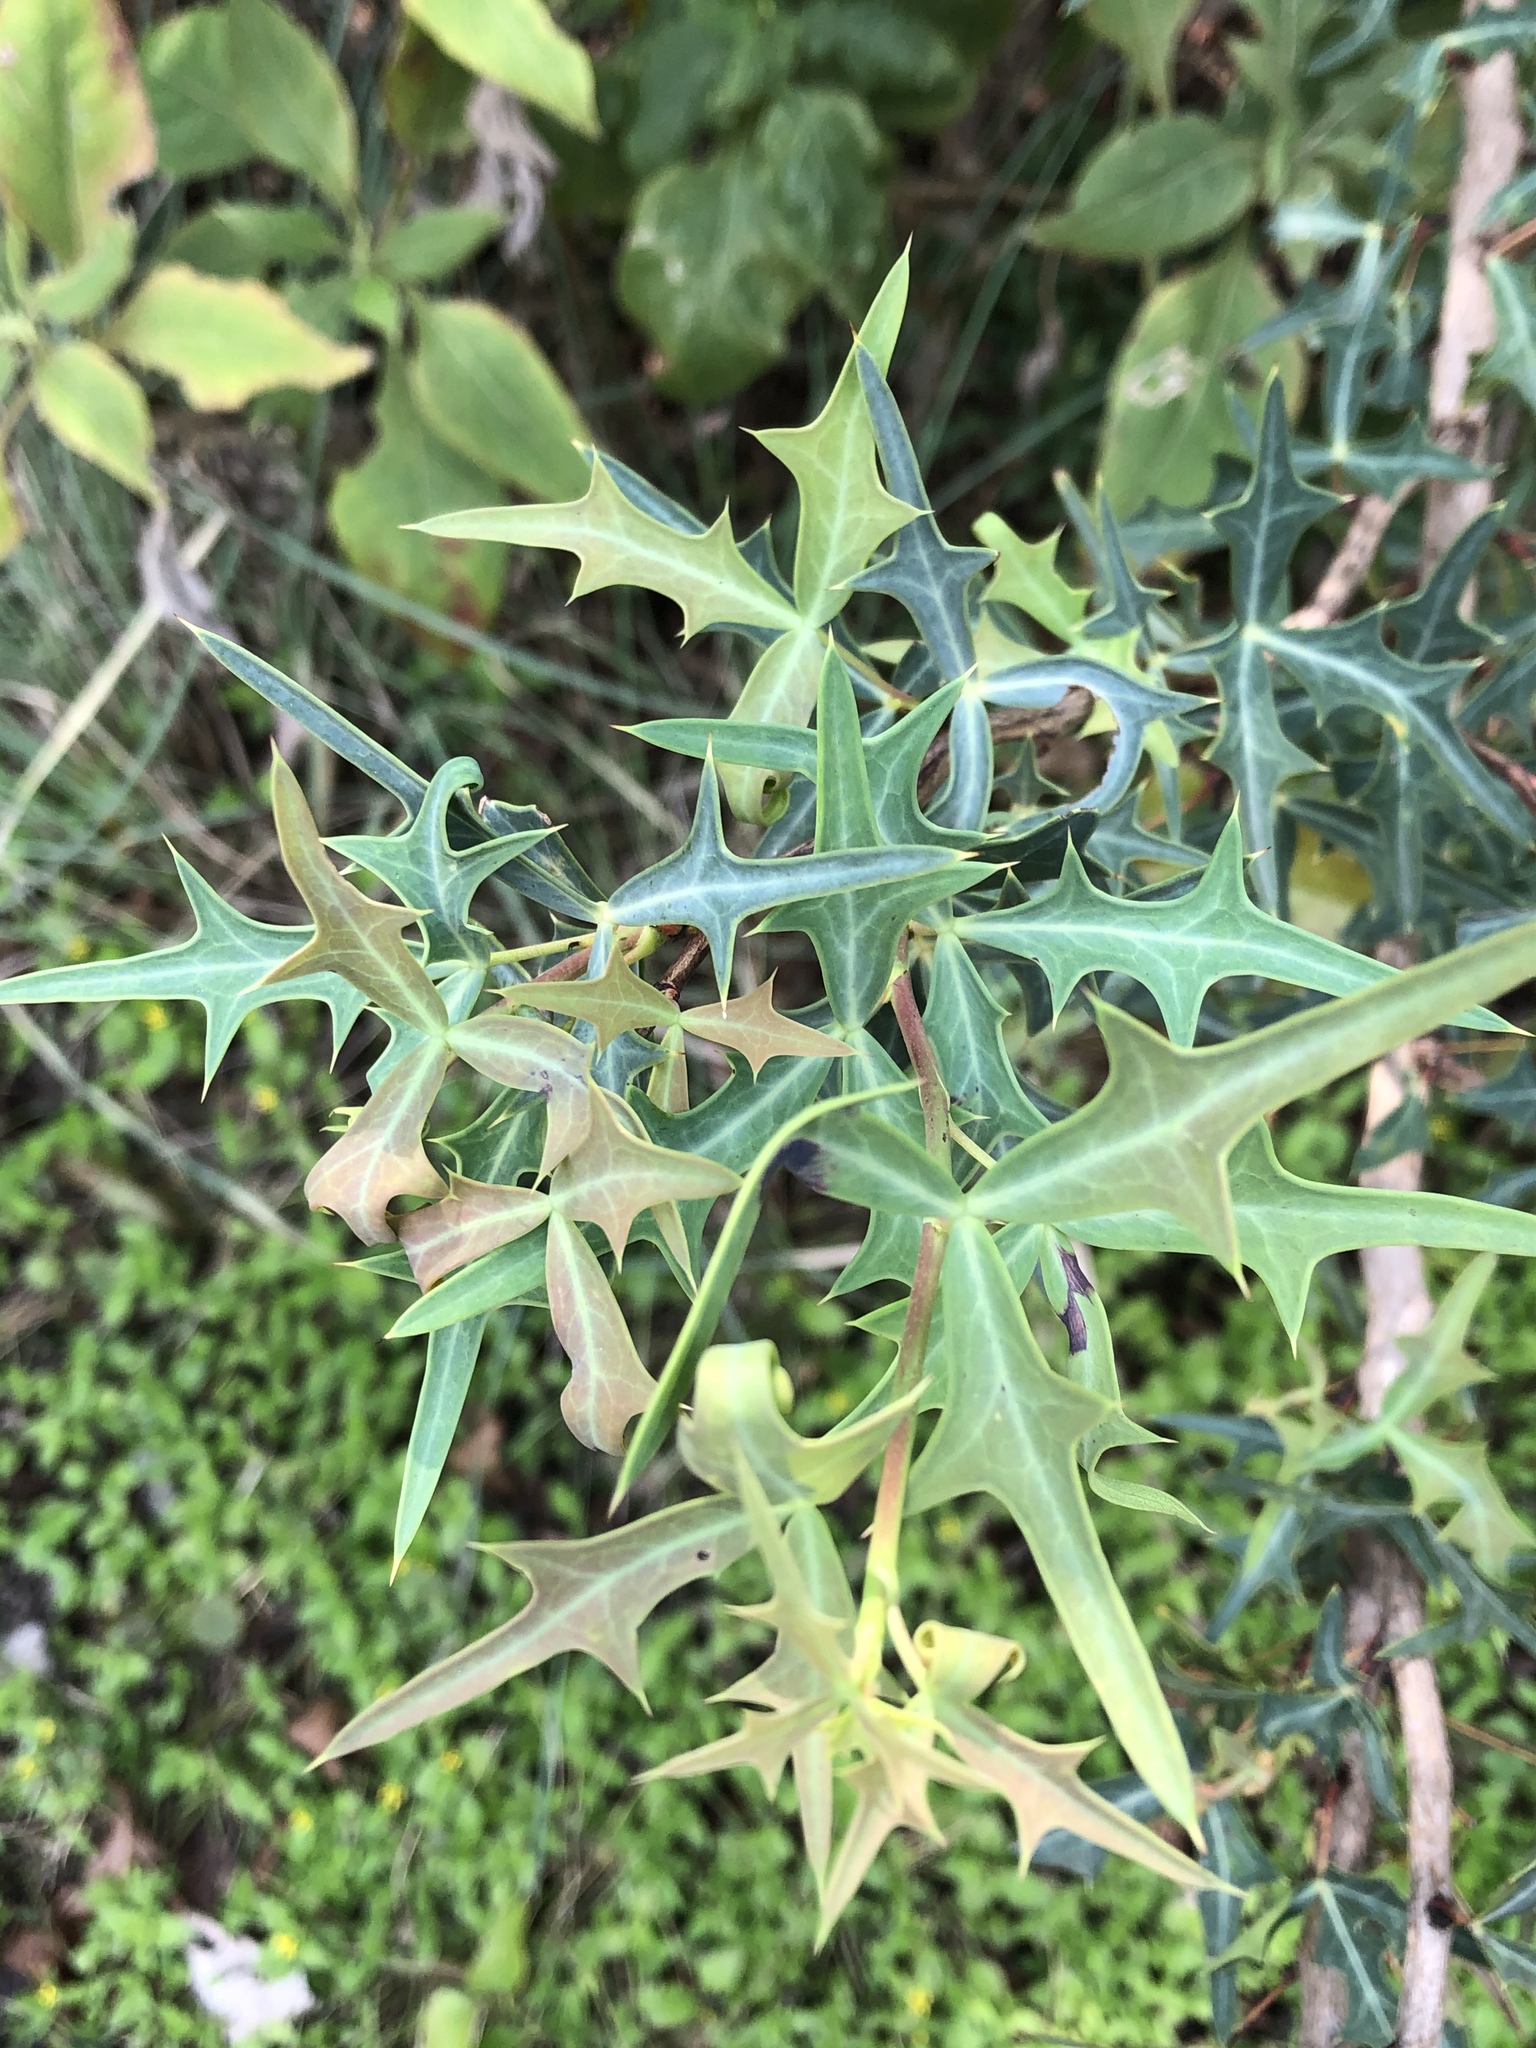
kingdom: Plantae
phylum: Tracheophyta
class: Magnoliopsida
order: Ranunculales
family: Berberidaceae
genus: Alloberberis
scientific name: Alloberberis trifoliolata
